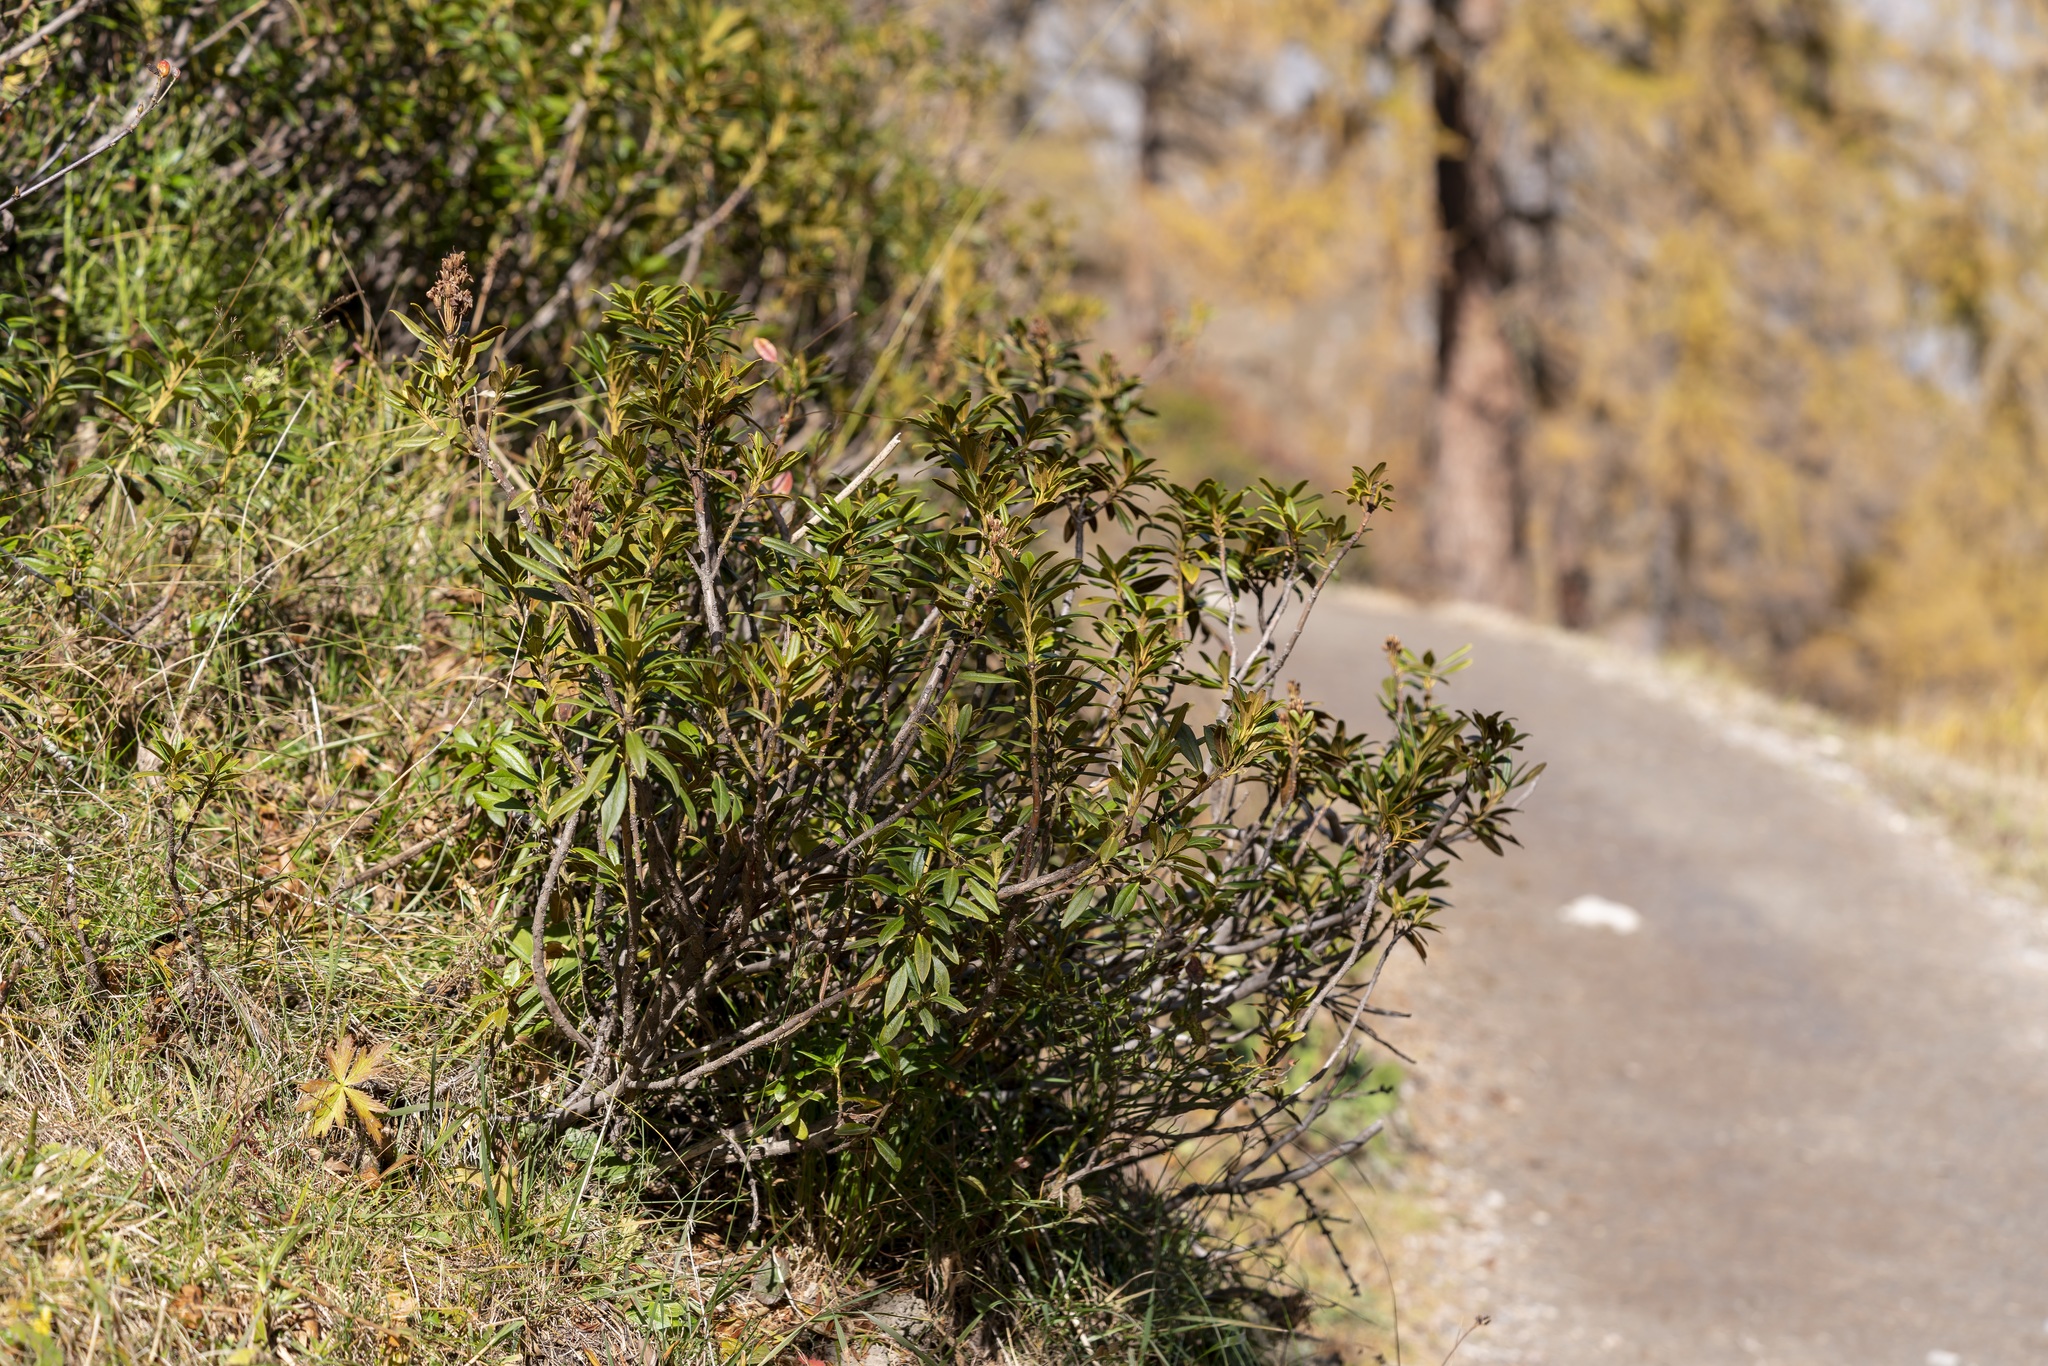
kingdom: Plantae
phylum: Tracheophyta
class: Magnoliopsida
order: Ericales
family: Ericaceae
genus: Rhododendron
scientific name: Rhododendron ferrugineum
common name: Alpenrose
